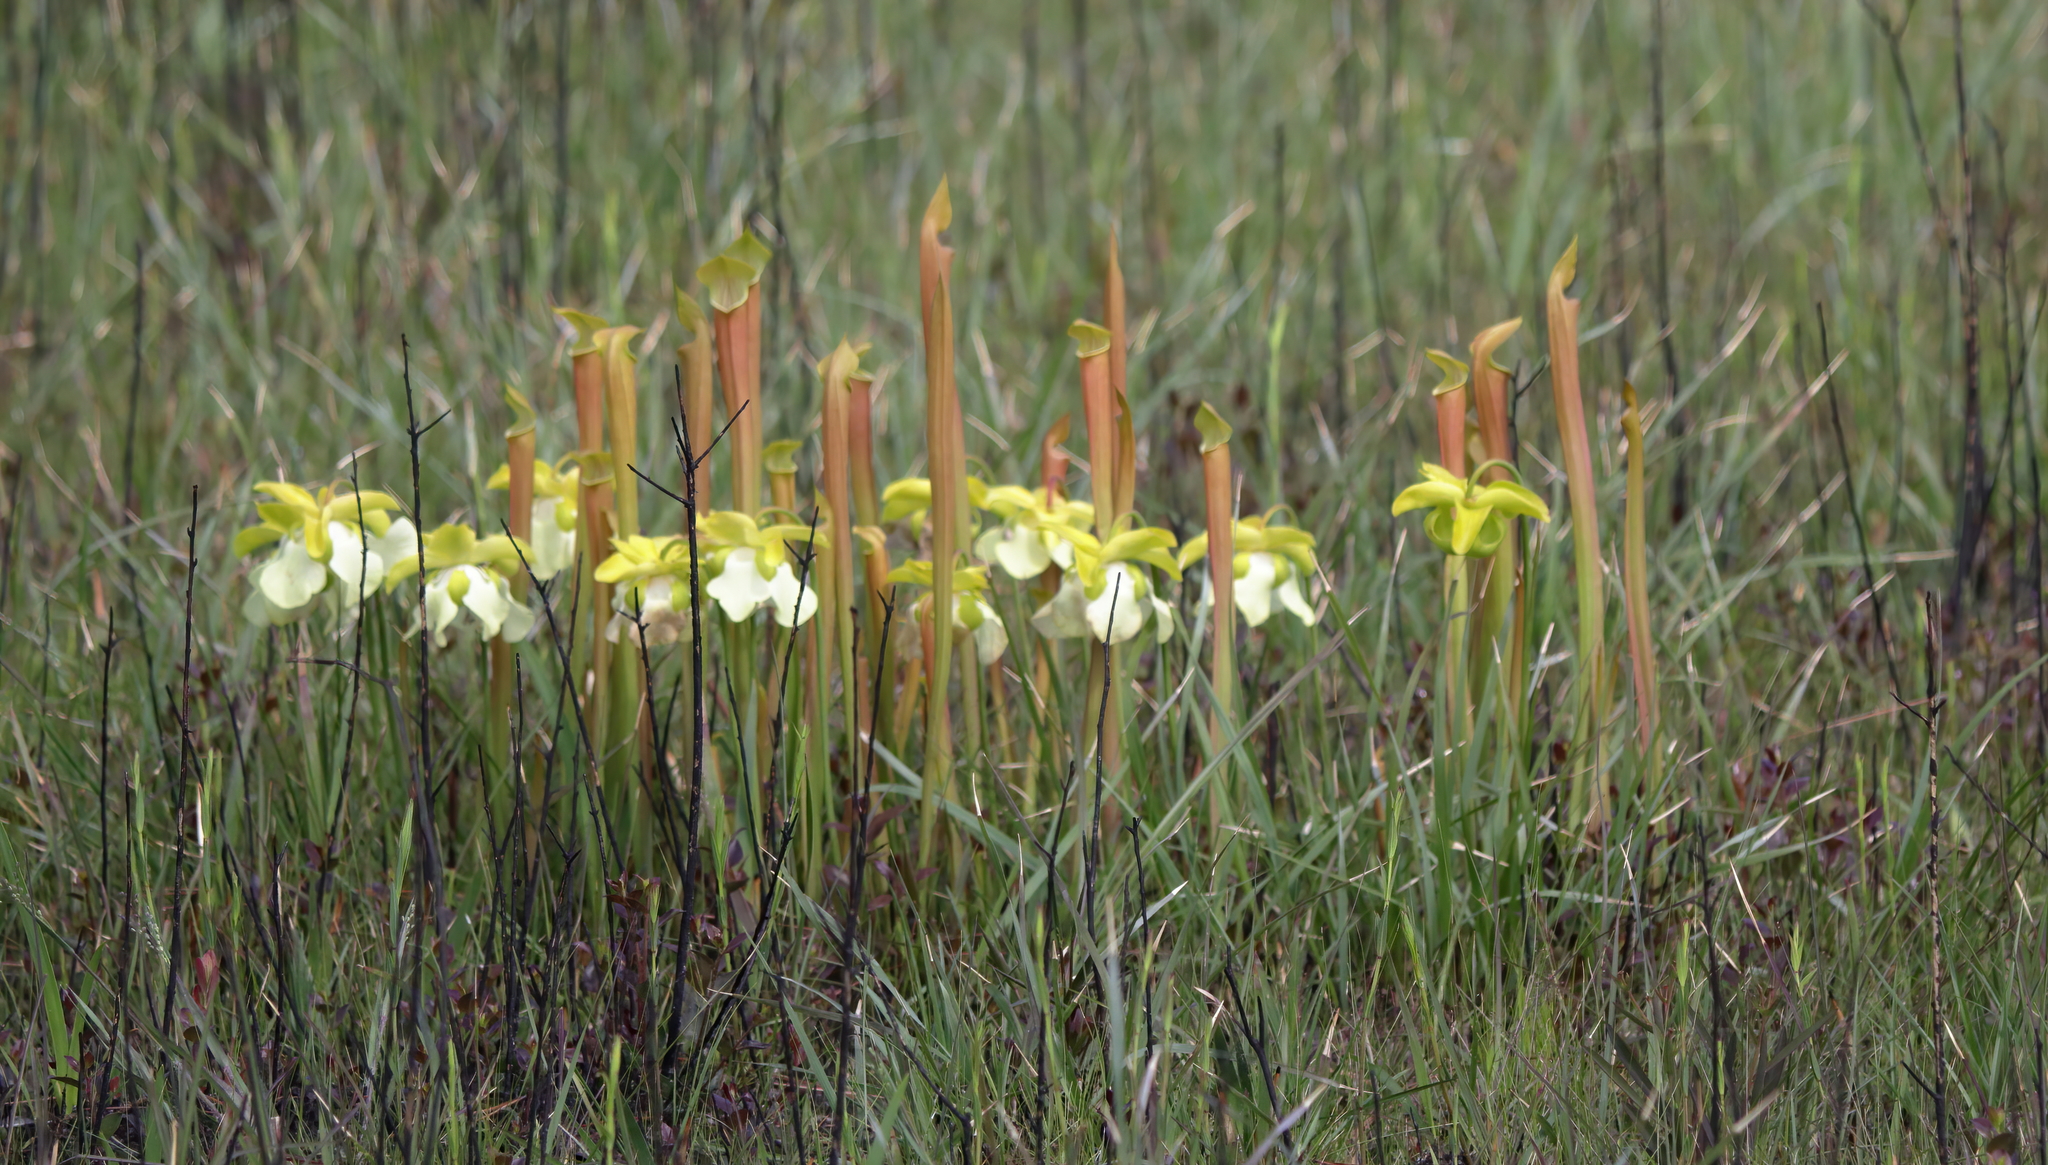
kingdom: Plantae
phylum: Tracheophyta
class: Magnoliopsida
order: Ericales
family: Sarraceniaceae
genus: Sarracenia
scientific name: Sarracenia alata
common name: Yellow trumpets
